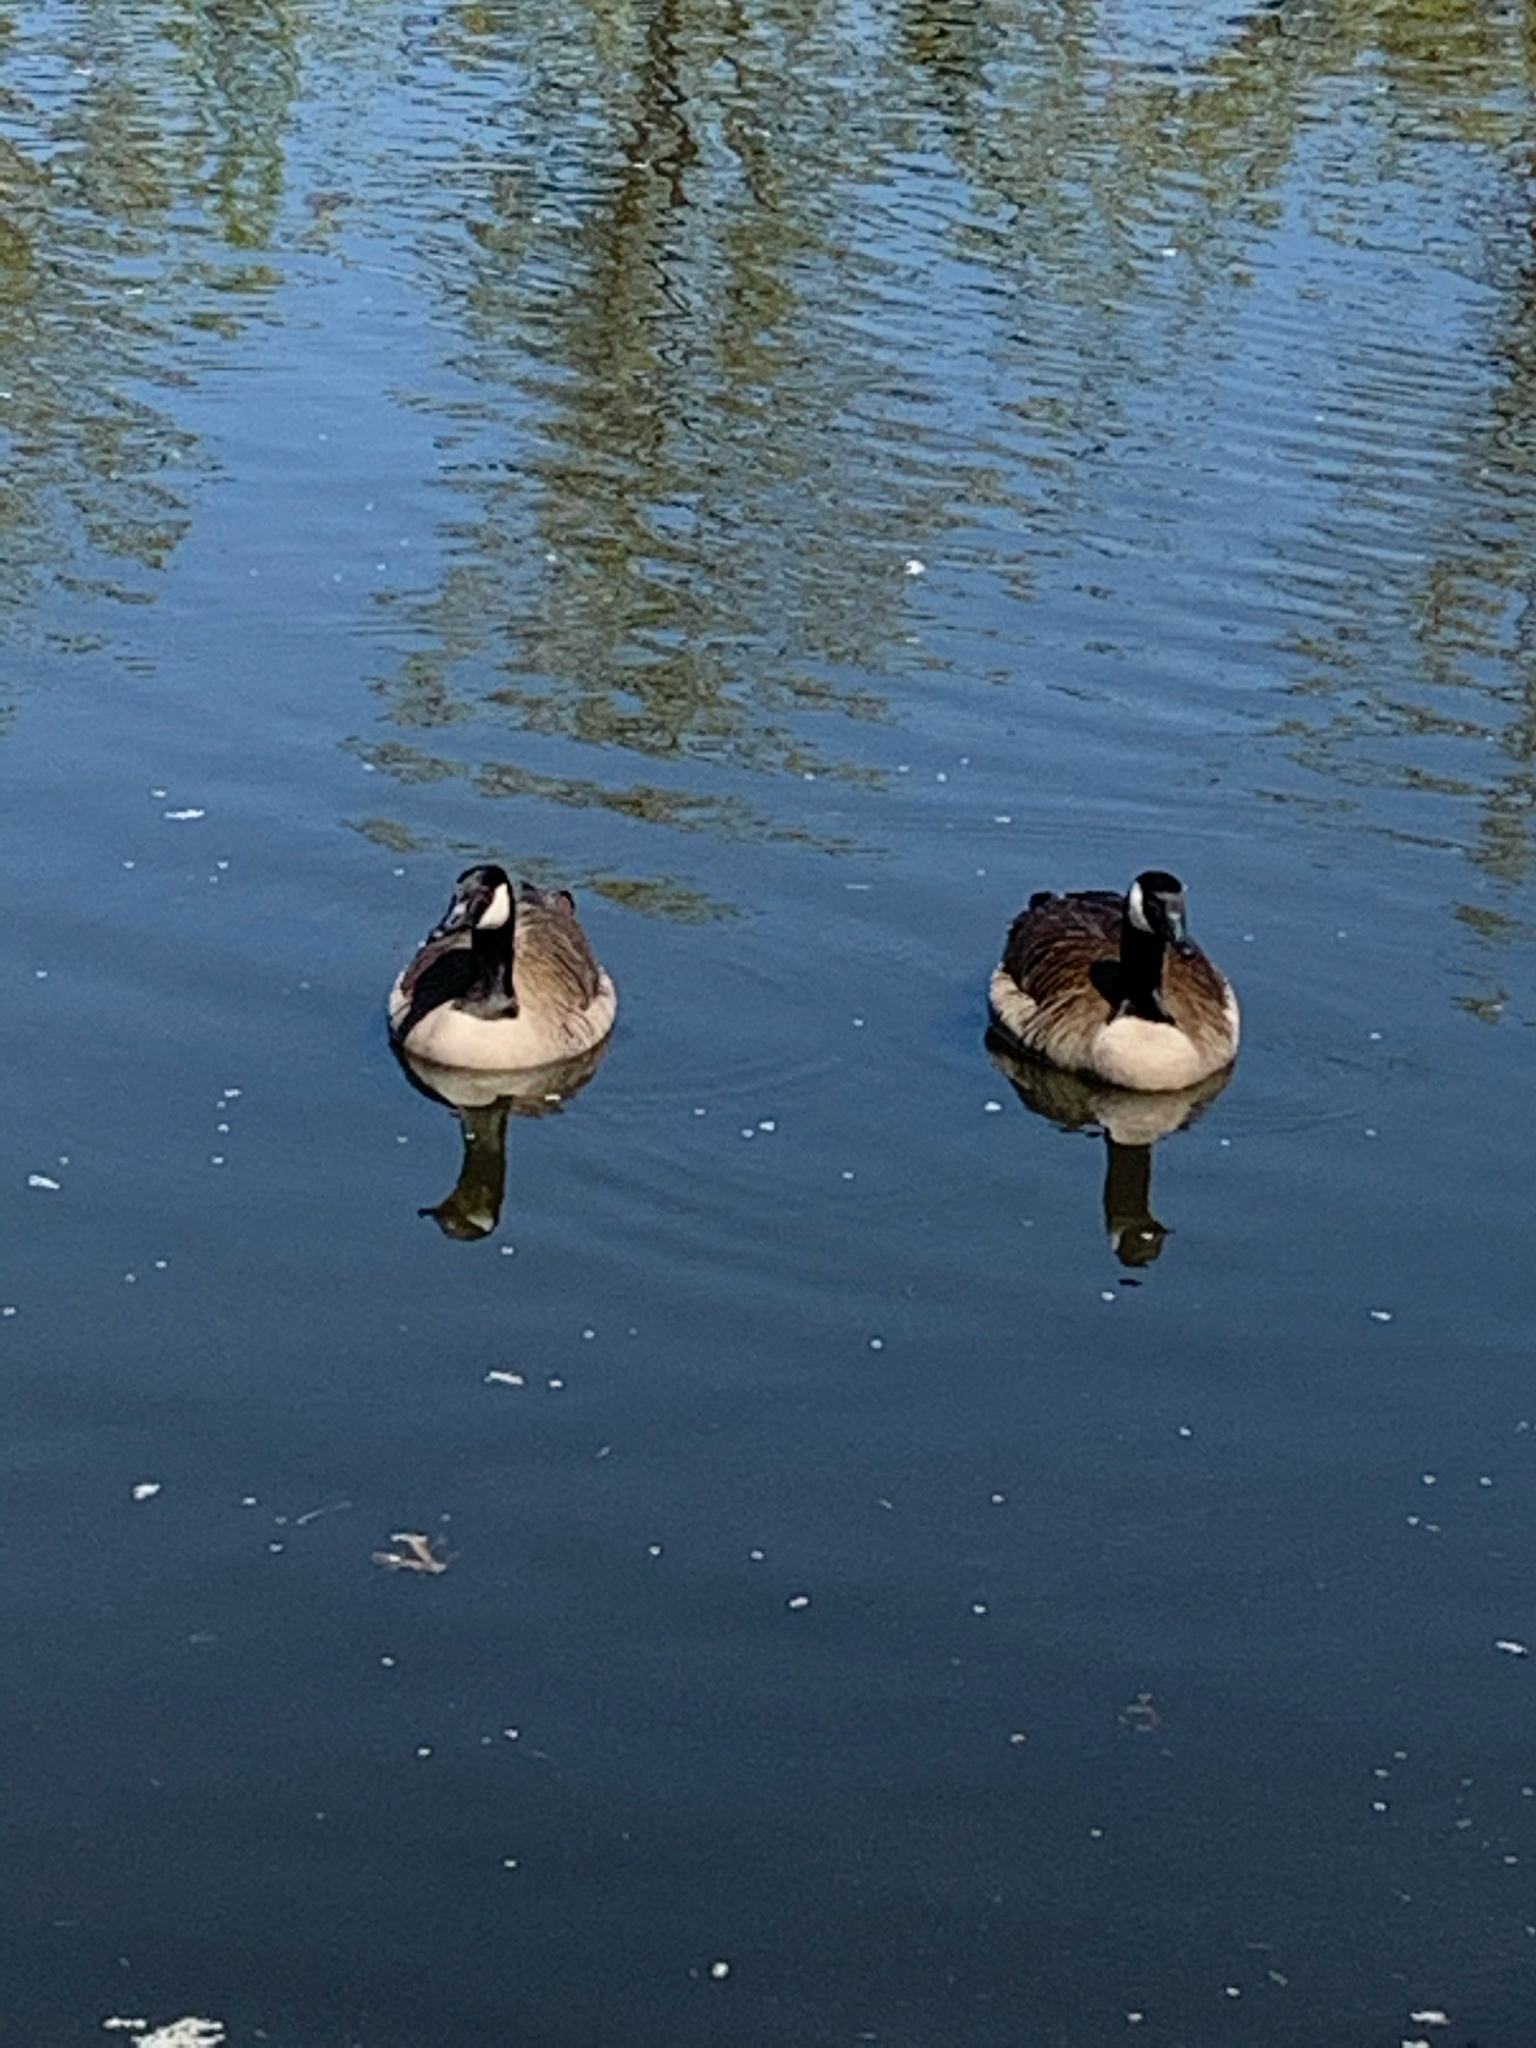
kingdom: Animalia
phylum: Chordata
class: Aves
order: Anseriformes
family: Anatidae
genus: Branta
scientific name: Branta canadensis
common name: Canada goose
